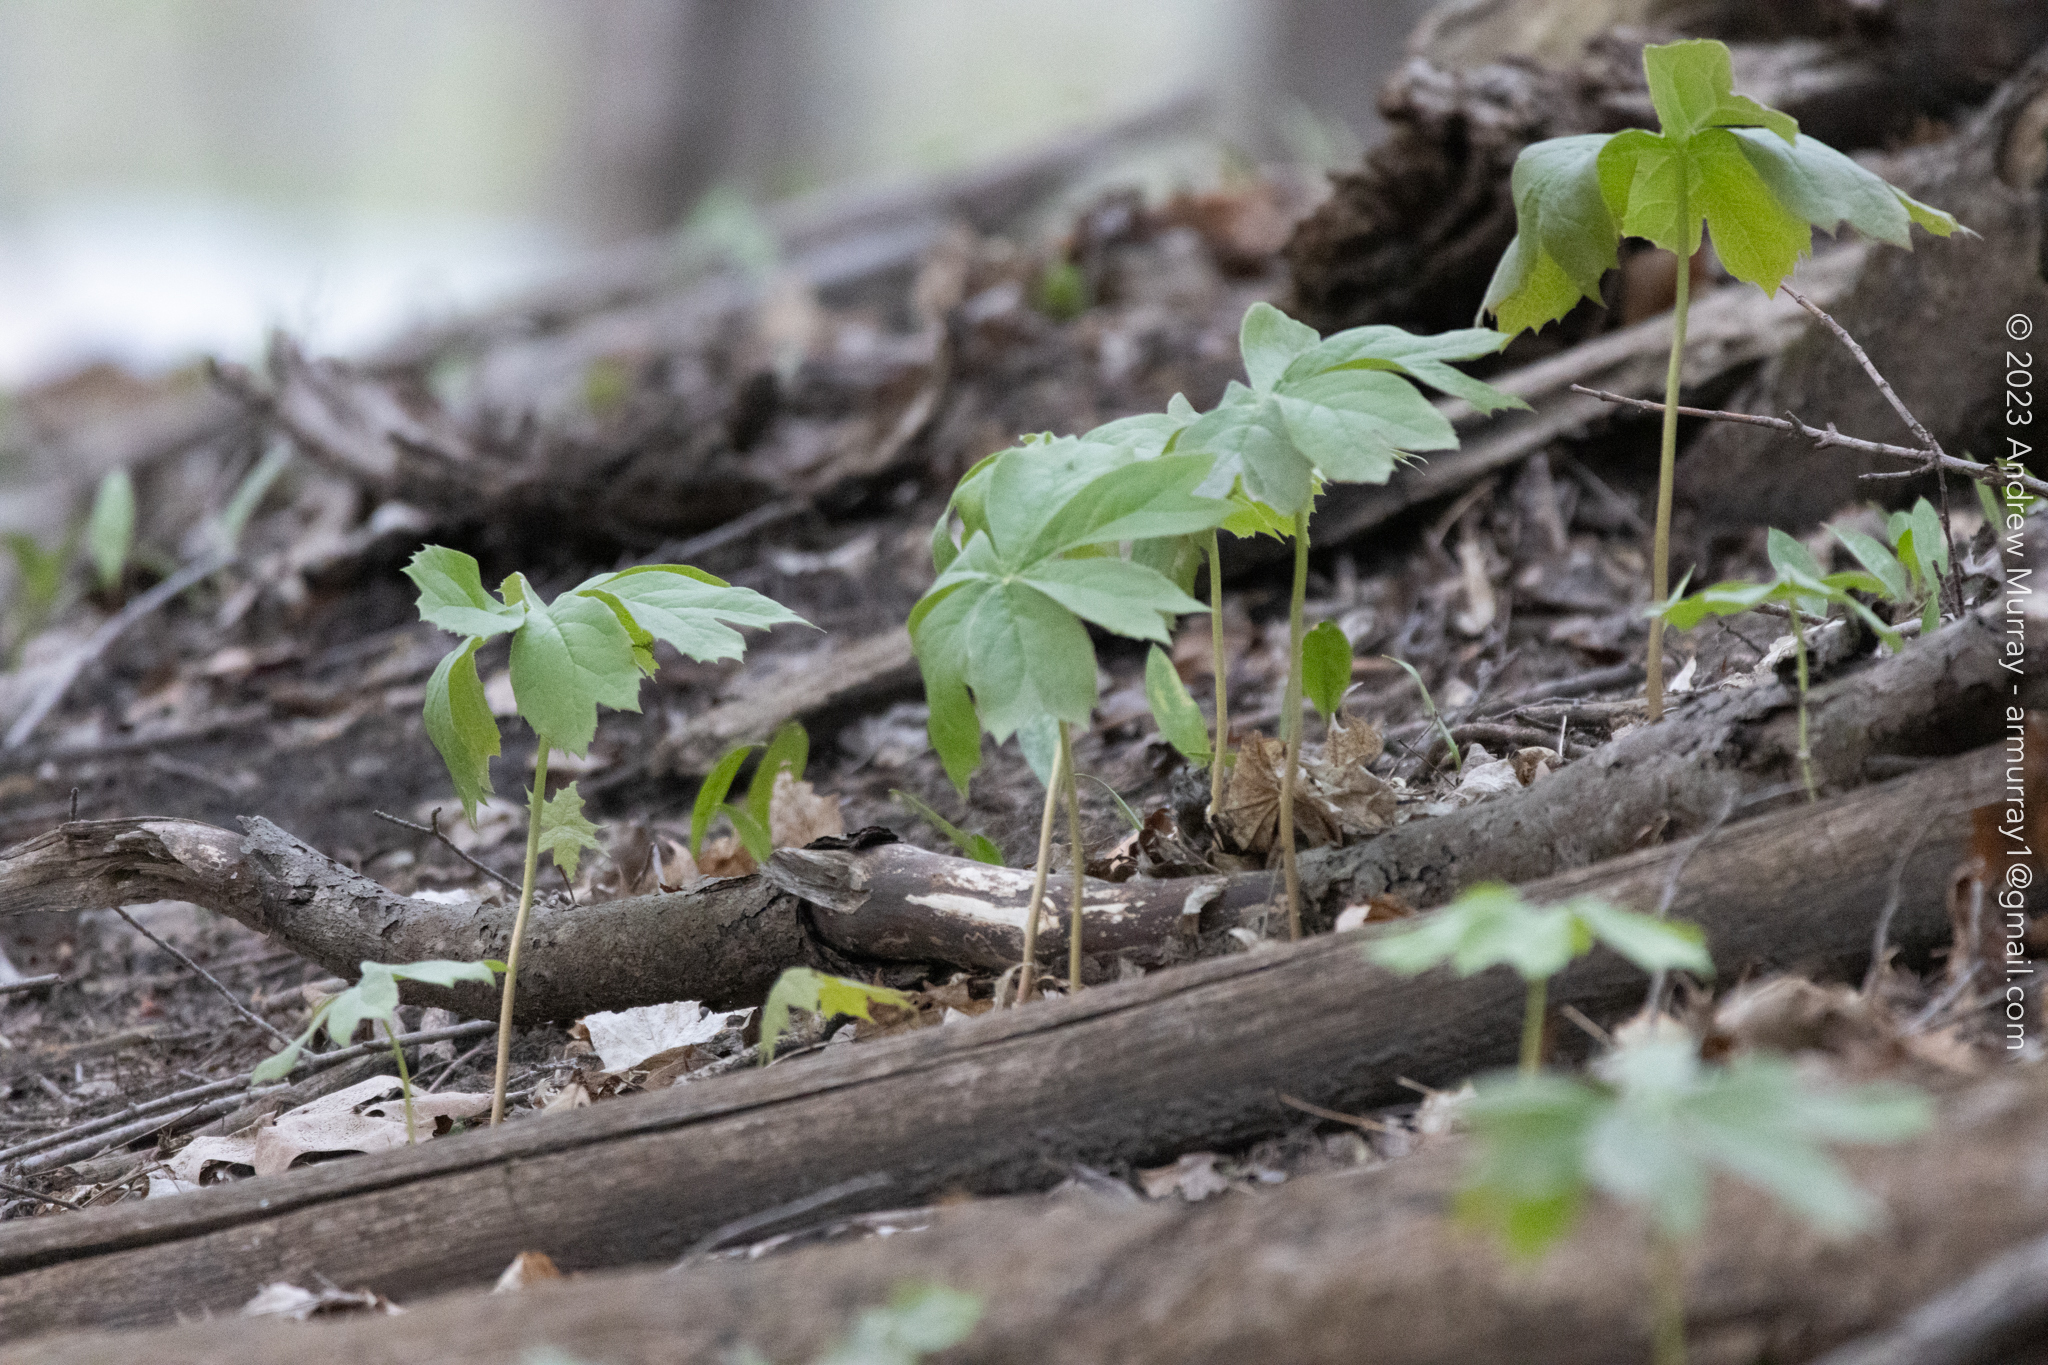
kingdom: Plantae
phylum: Tracheophyta
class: Magnoliopsida
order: Ranunculales
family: Berberidaceae
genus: Podophyllum
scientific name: Podophyllum peltatum
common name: Wild mandrake
